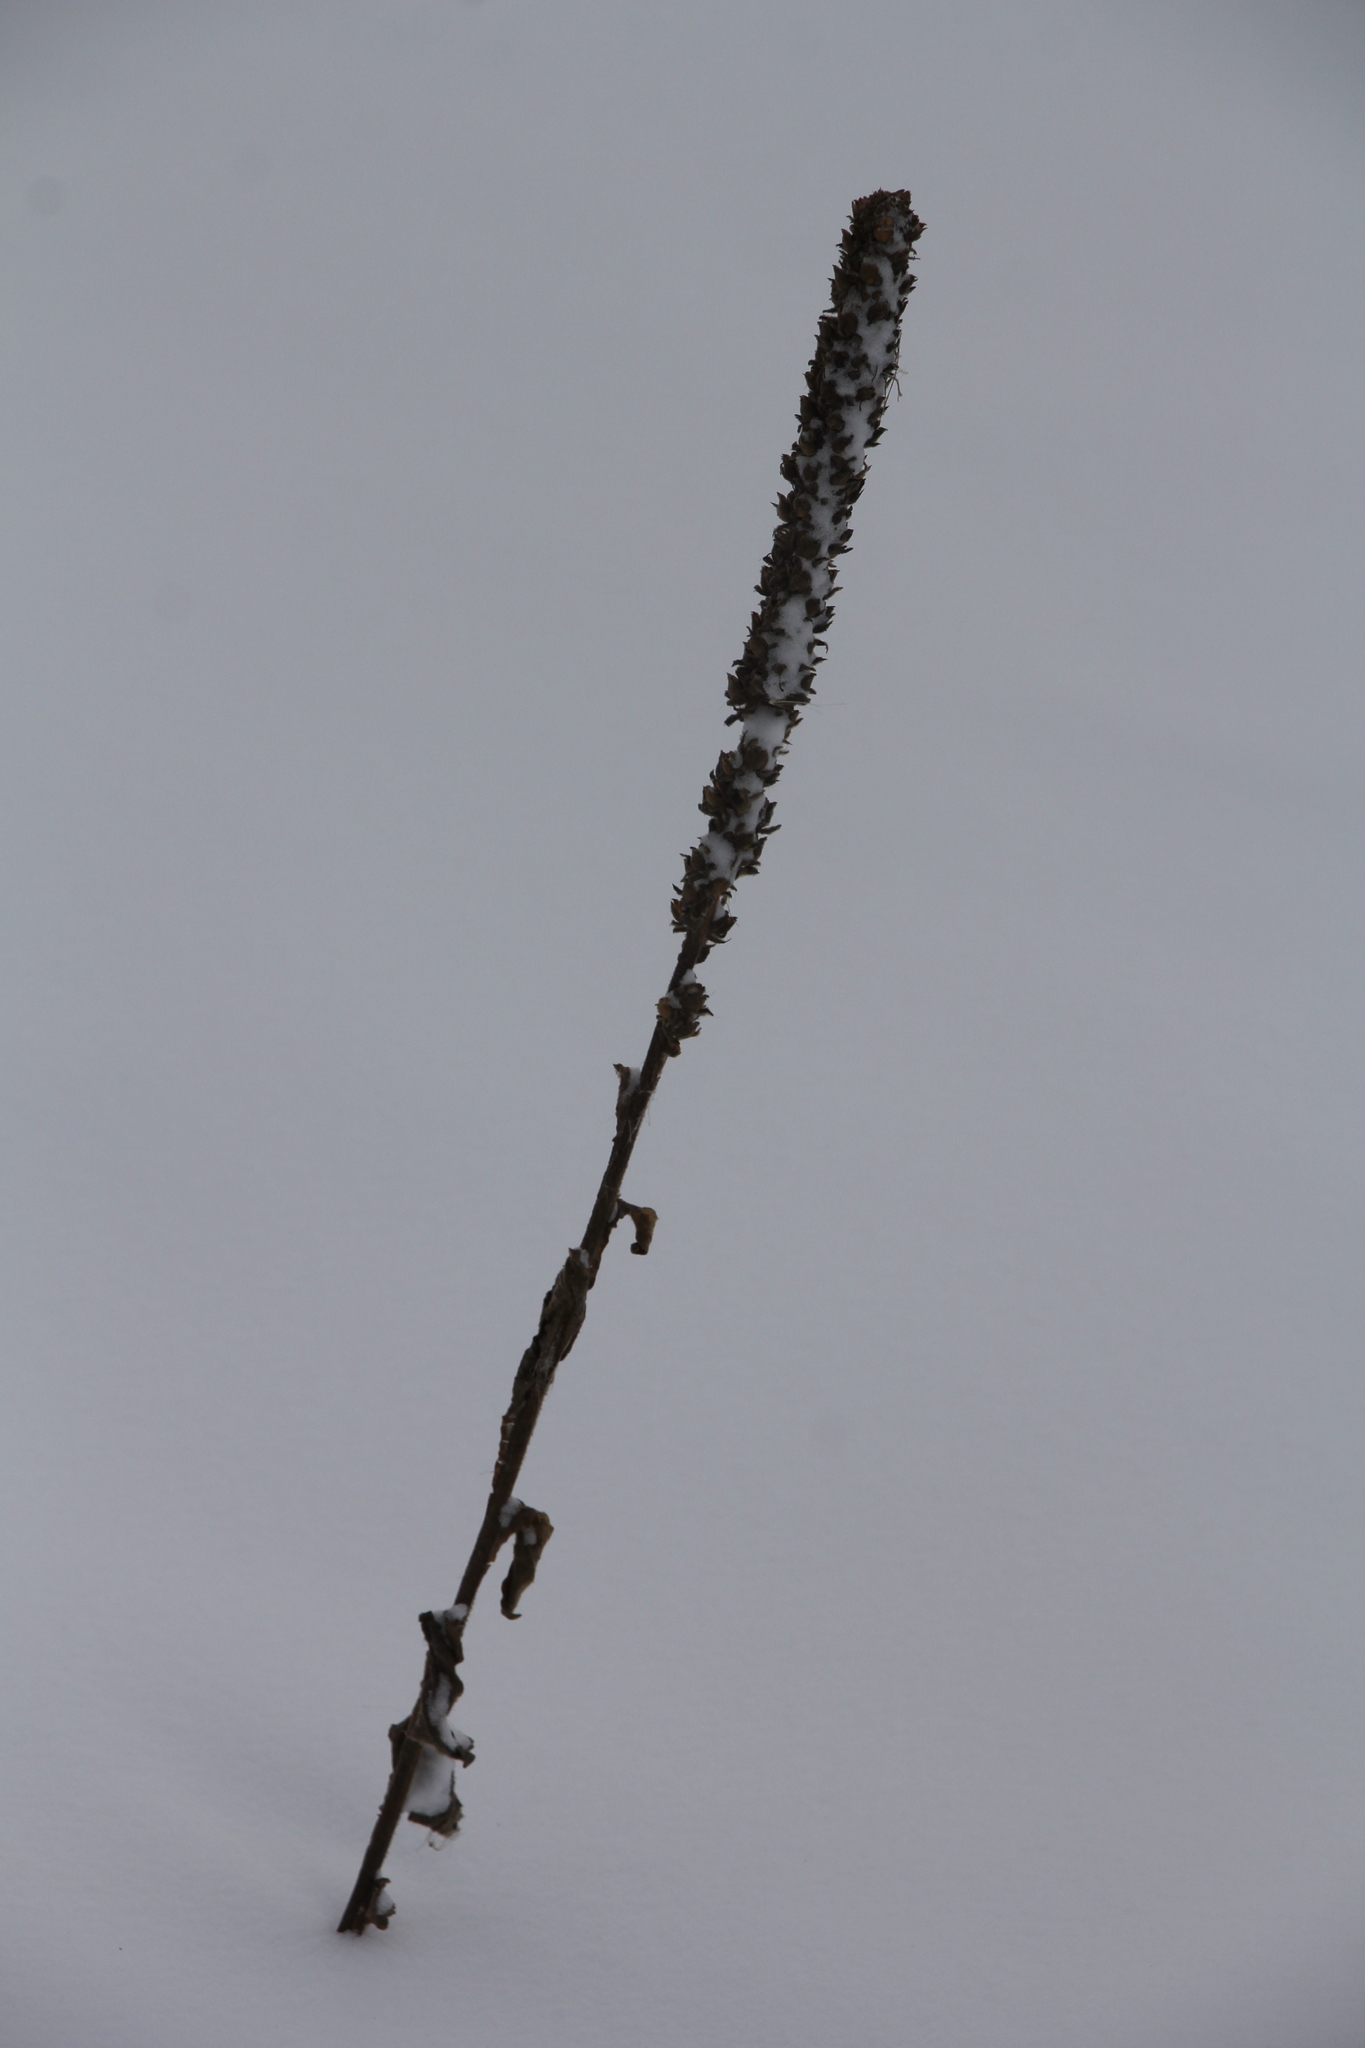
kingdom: Plantae
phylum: Tracheophyta
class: Magnoliopsida
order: Lamiales
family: Scrophulariaceae
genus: Verbascum
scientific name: Verbascum thapsus
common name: Common mullein
